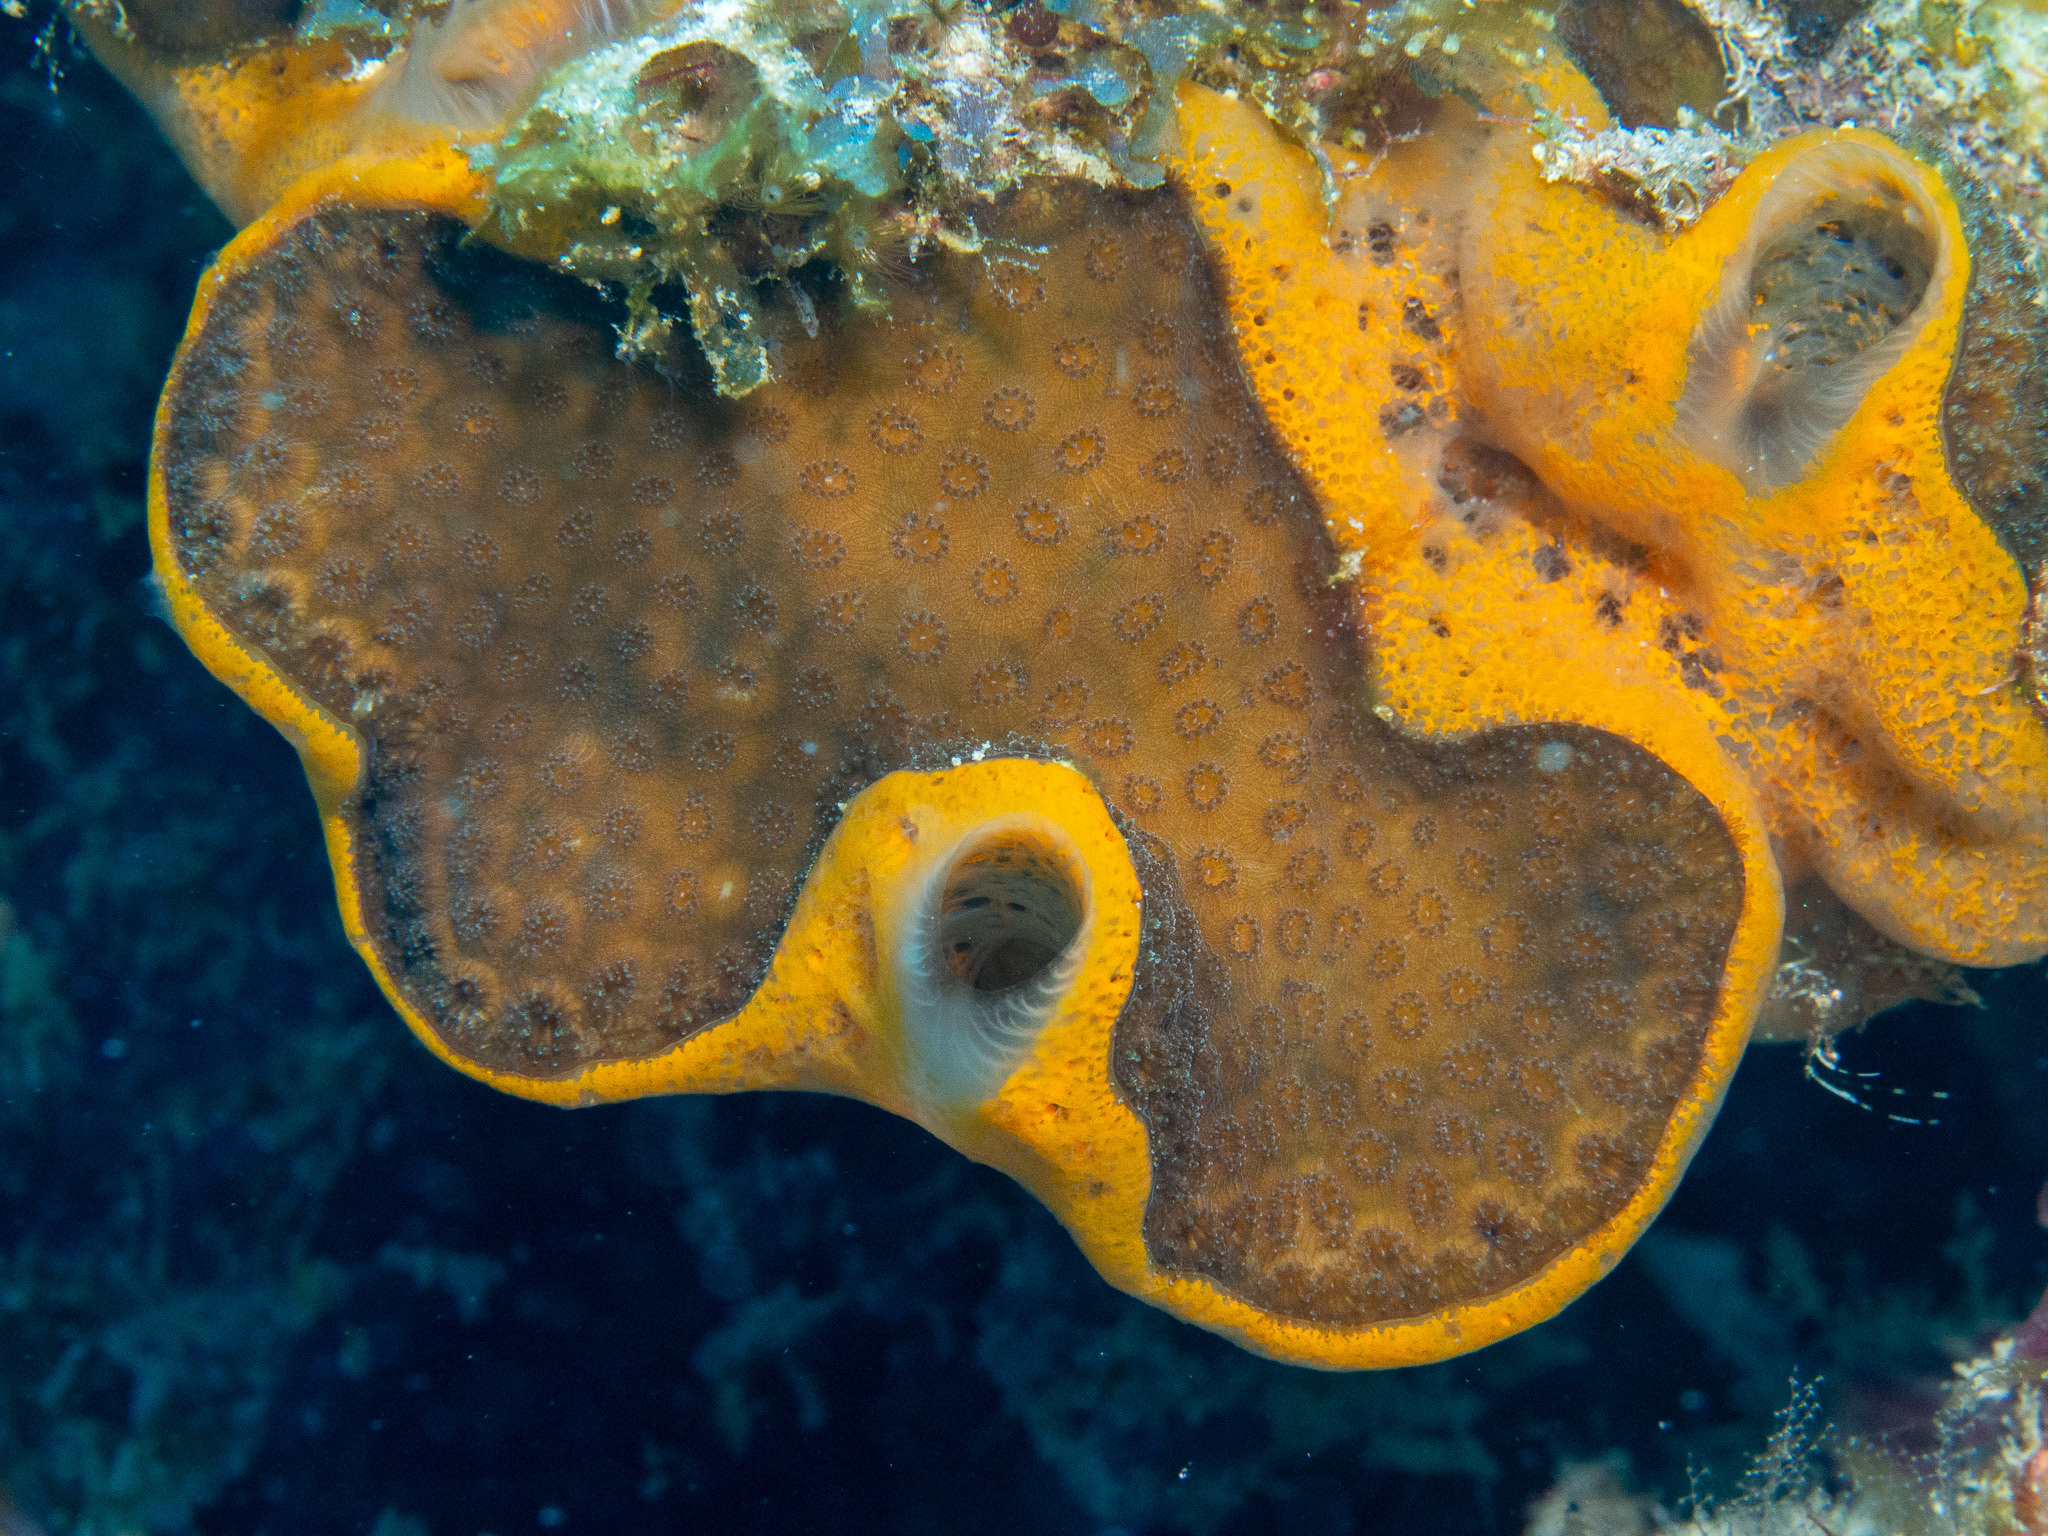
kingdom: Animalia
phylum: Porifera
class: Demospongiae
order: Poecilosclerida
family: Mycalidae
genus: Mycale
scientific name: Mycale laevis
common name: Orange icing sponge
